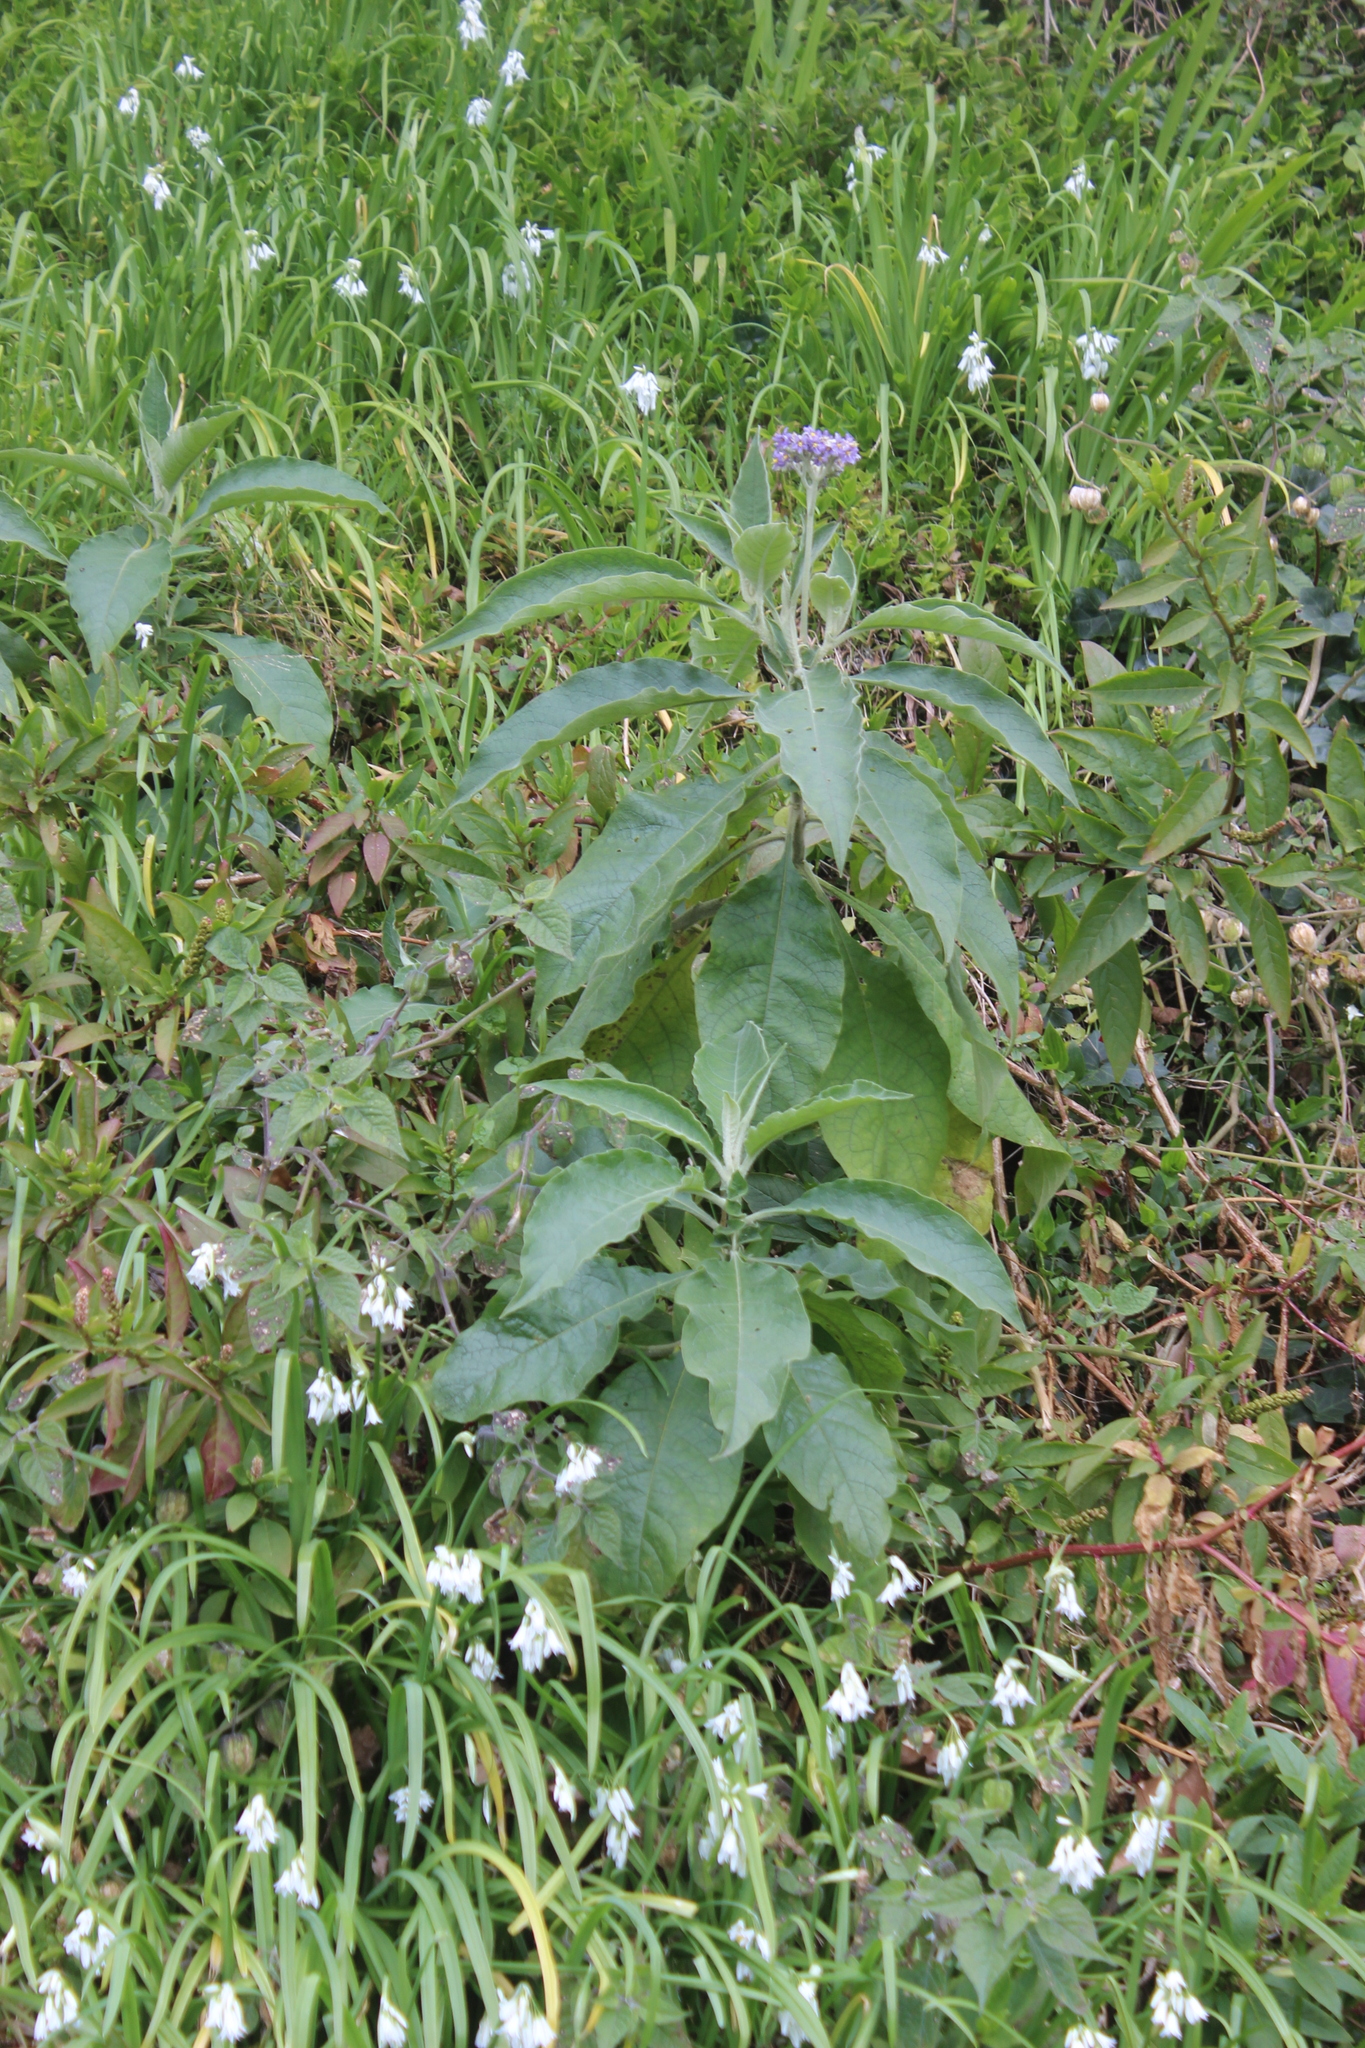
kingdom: Plantae
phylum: Tracheophyta
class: Magnoliopsida
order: Solanales
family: Solanaceae
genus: Solanum
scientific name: Solanum mauritianum
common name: Earleaf nightshade
